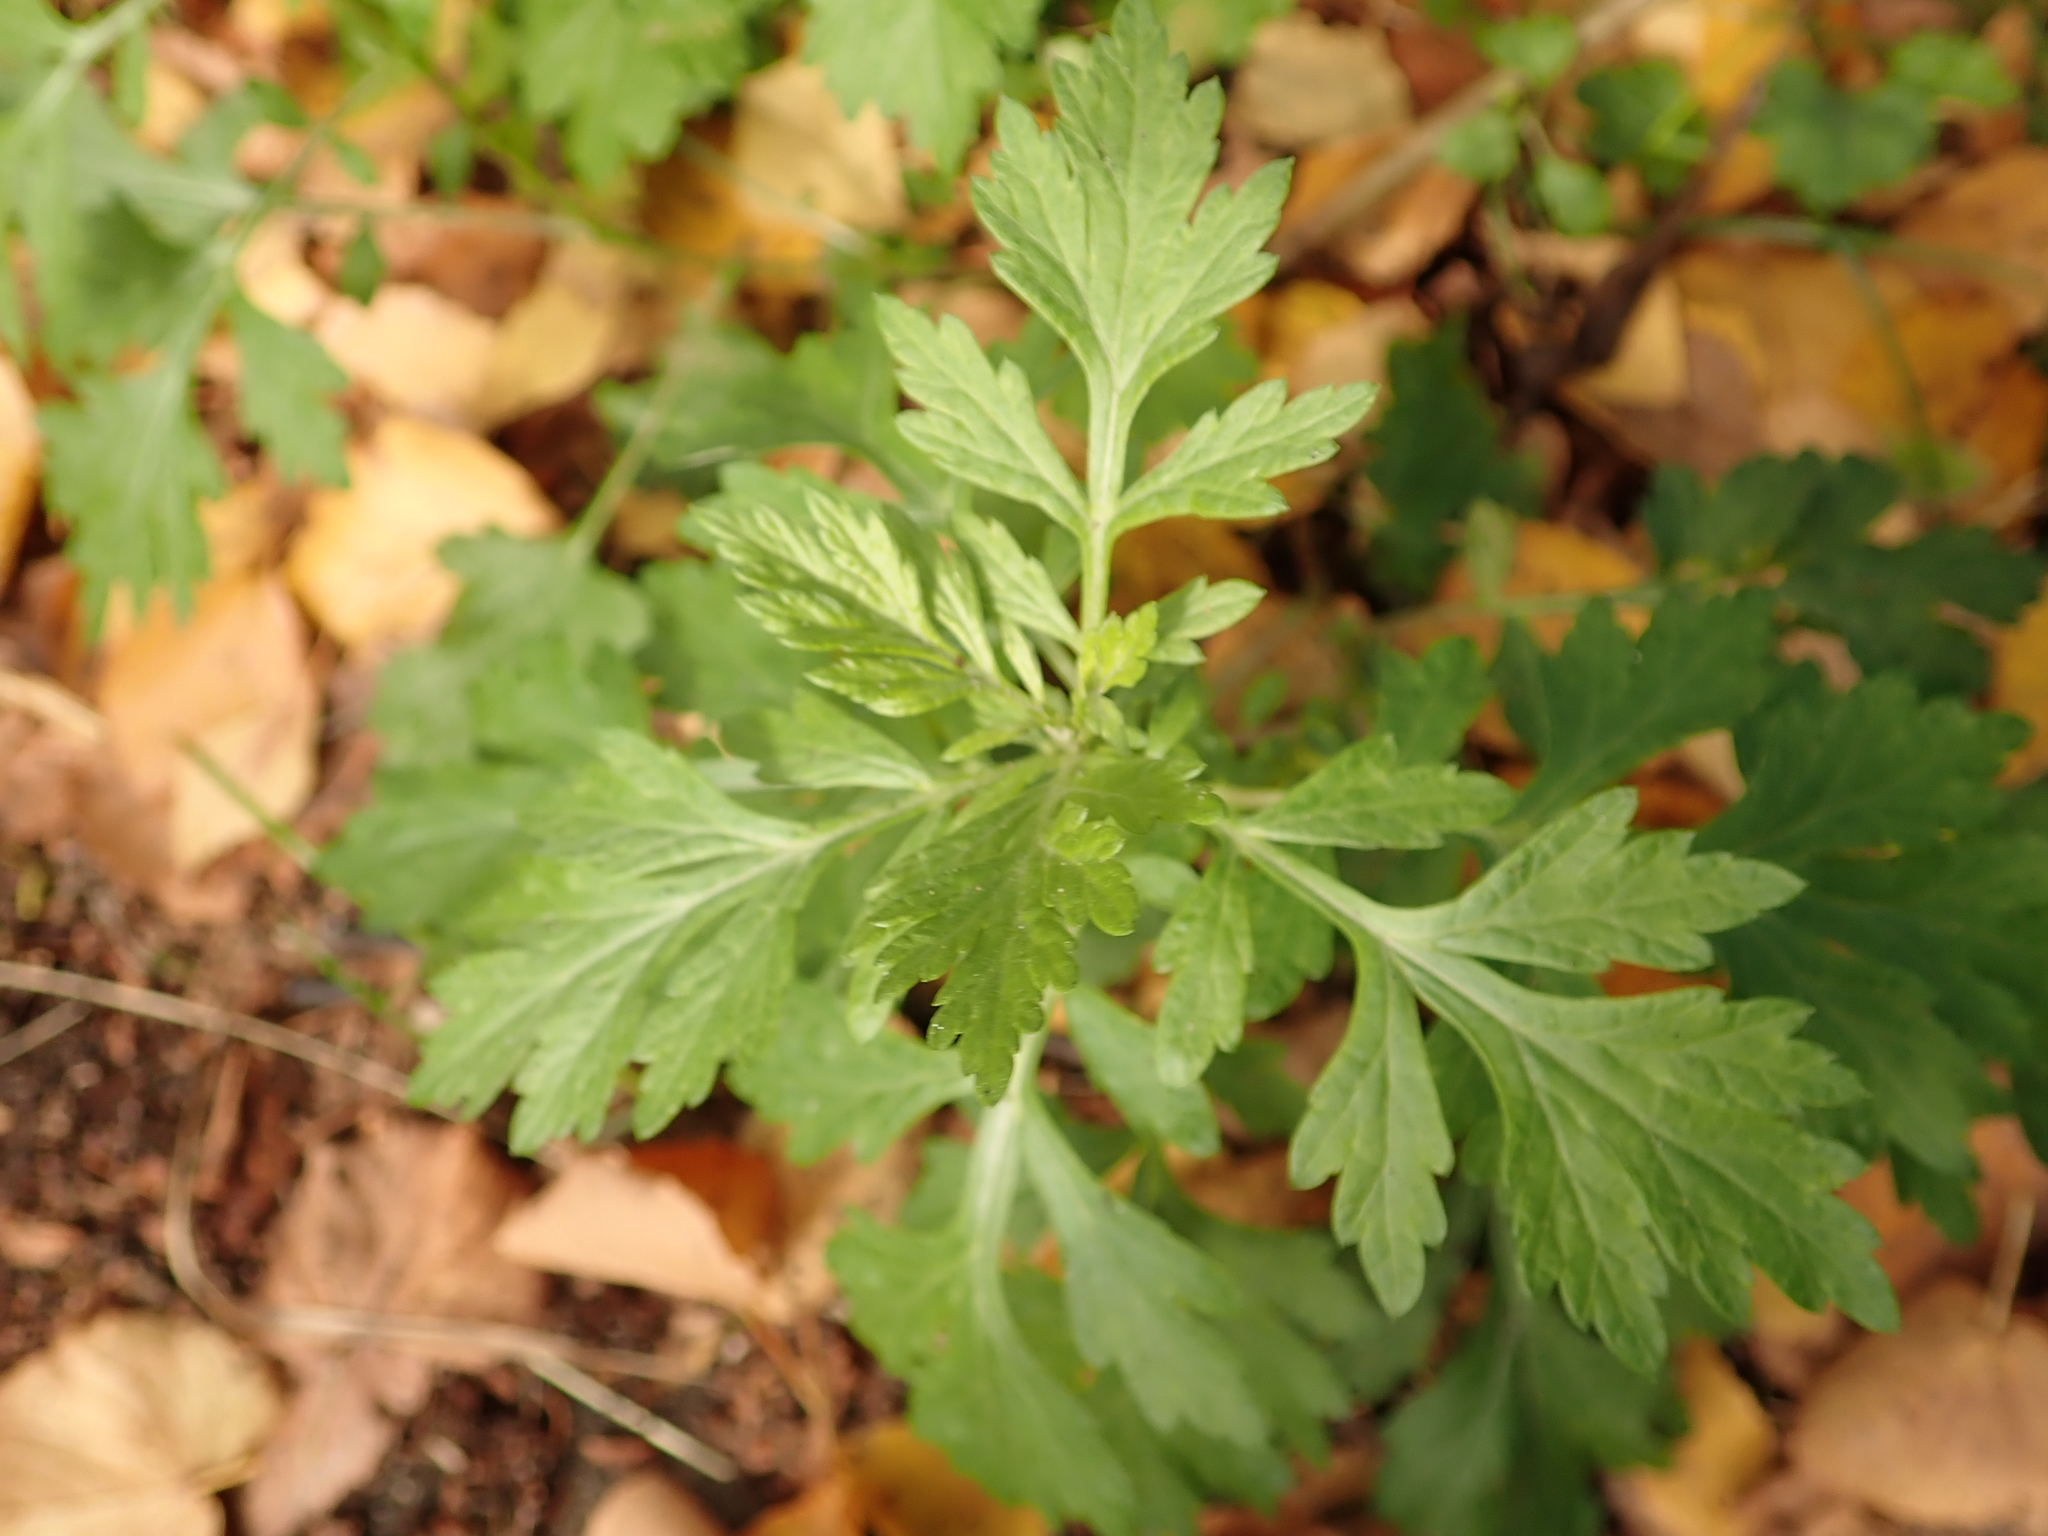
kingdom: Plantae
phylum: Tracheophyta
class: Magnoliopsida
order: Asterales
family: Asteraceae
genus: Artemisia
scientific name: Artemisia vulgaris
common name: Mugwort
